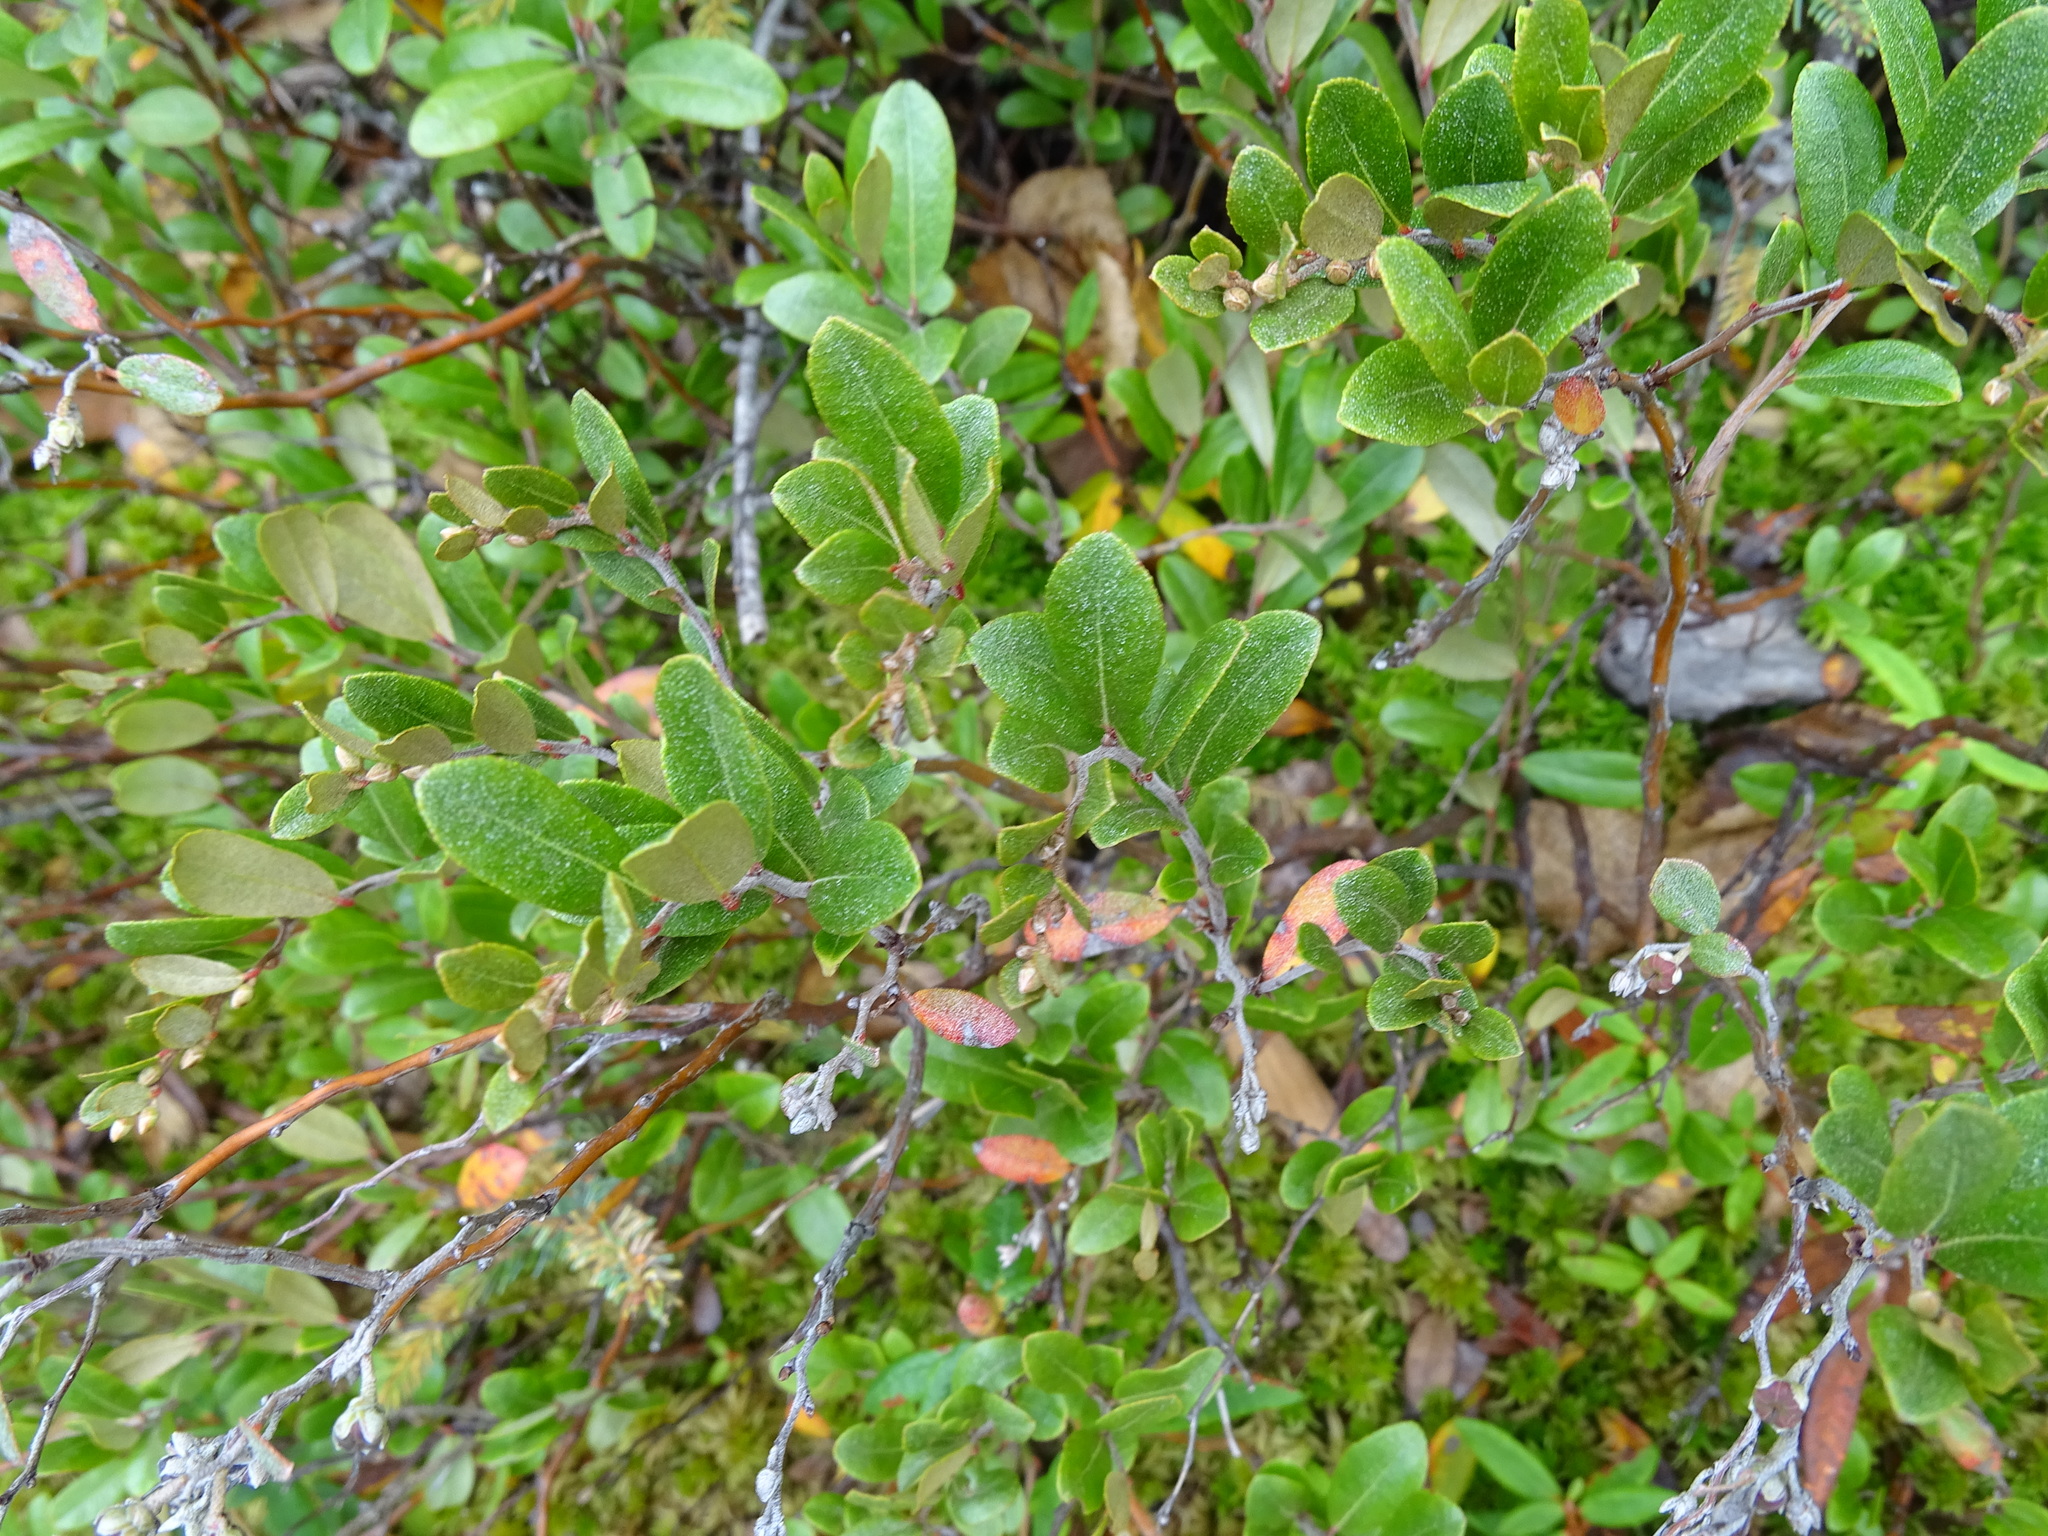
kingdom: Plantae
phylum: Tracheophyta
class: Magnoliopsida
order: Ericales
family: Ericaceae
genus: Chamaedaphne
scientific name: Chamaedaphne calyculata
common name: Leatherleaf
